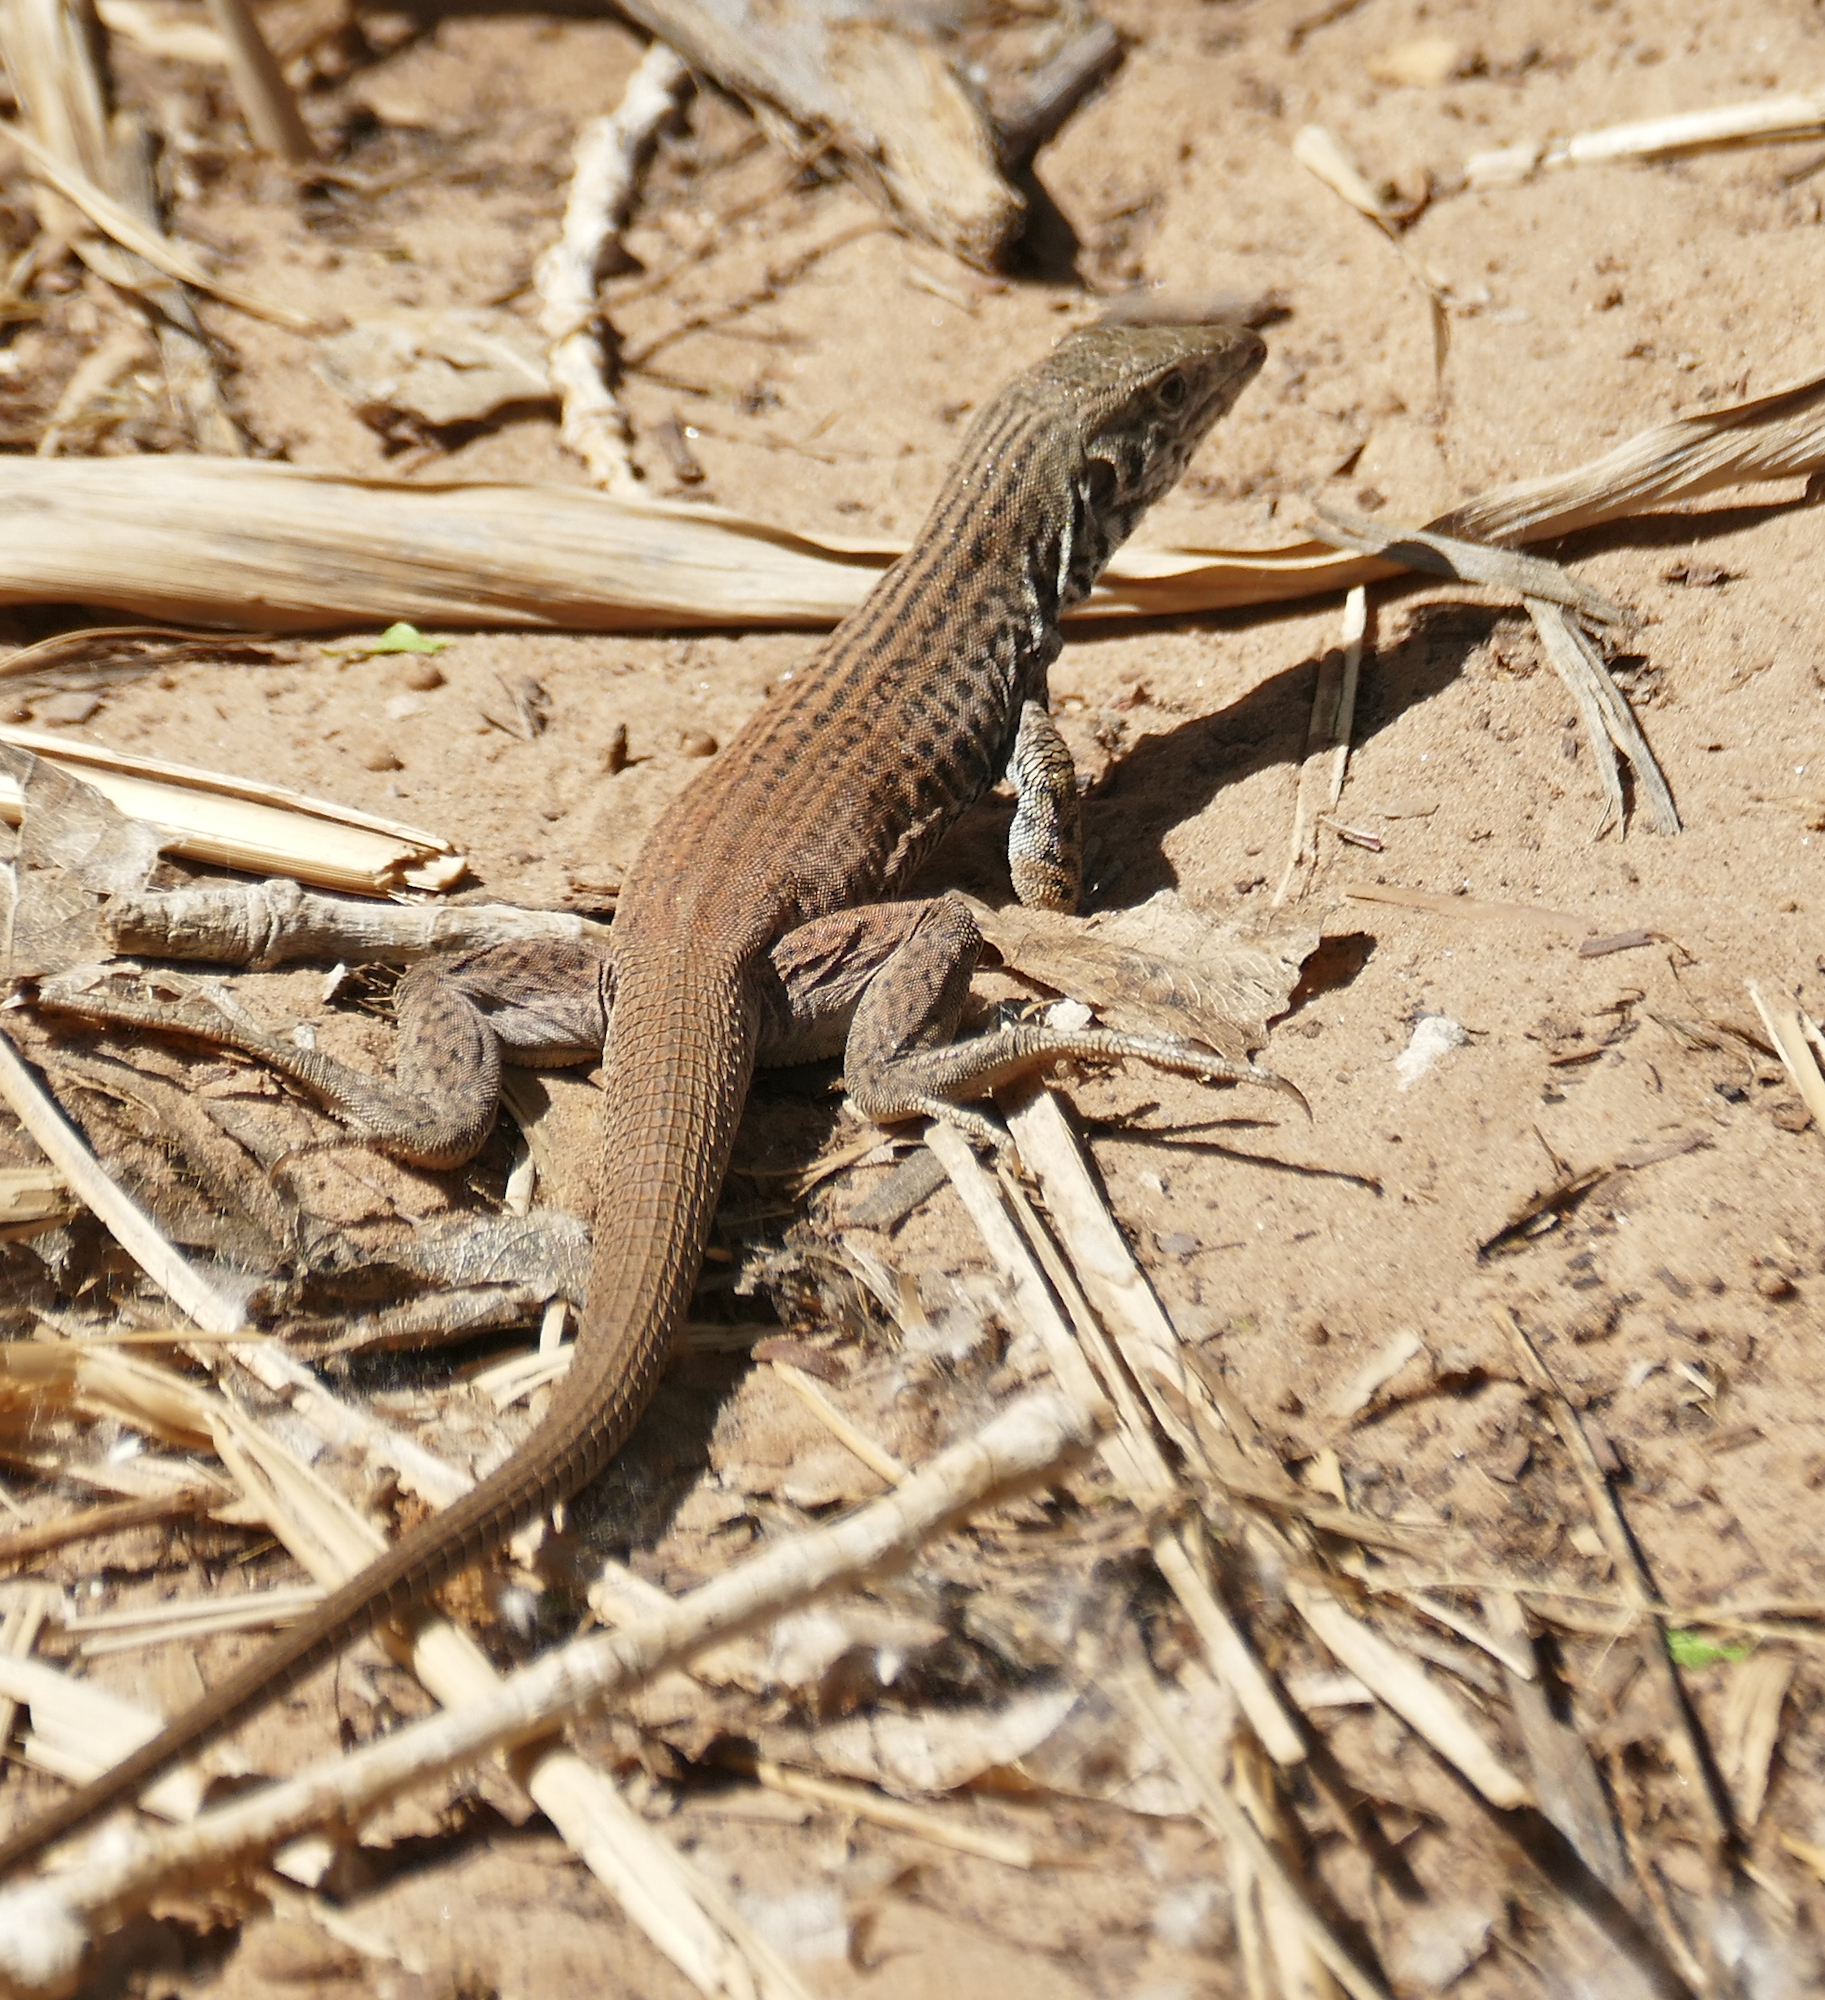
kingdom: Animalia
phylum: Chordata
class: Squamata
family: Teiidae
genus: Aspidoscelis
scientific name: Aspidoscelis tigris
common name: Tiger whiptail
